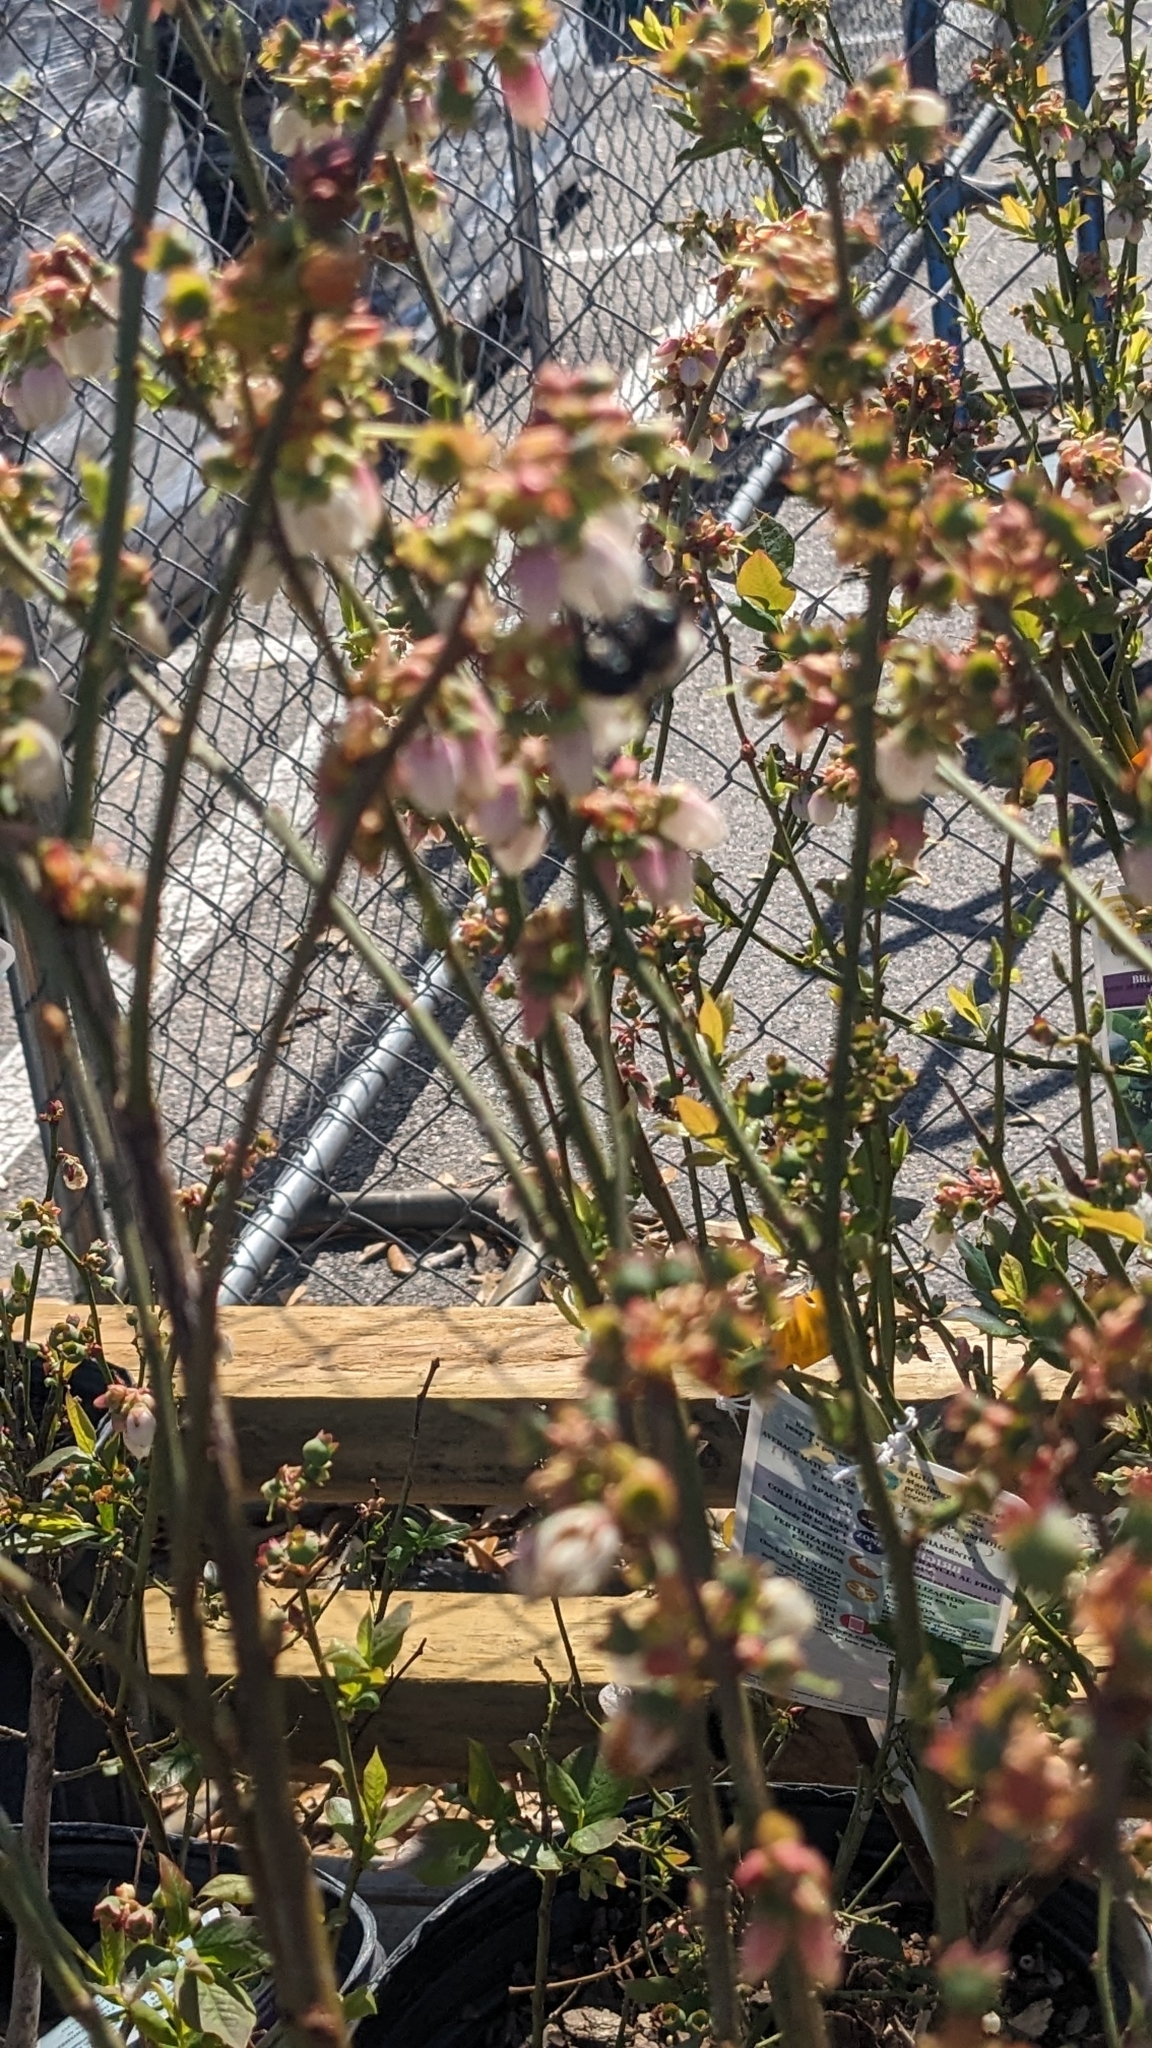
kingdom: Animalia
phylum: Arthropoda
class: Insecta
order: Hymenoptera
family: Apidae
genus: Habropoda
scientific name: Habropoda laboriosa
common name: Southeastern blueberry bee
